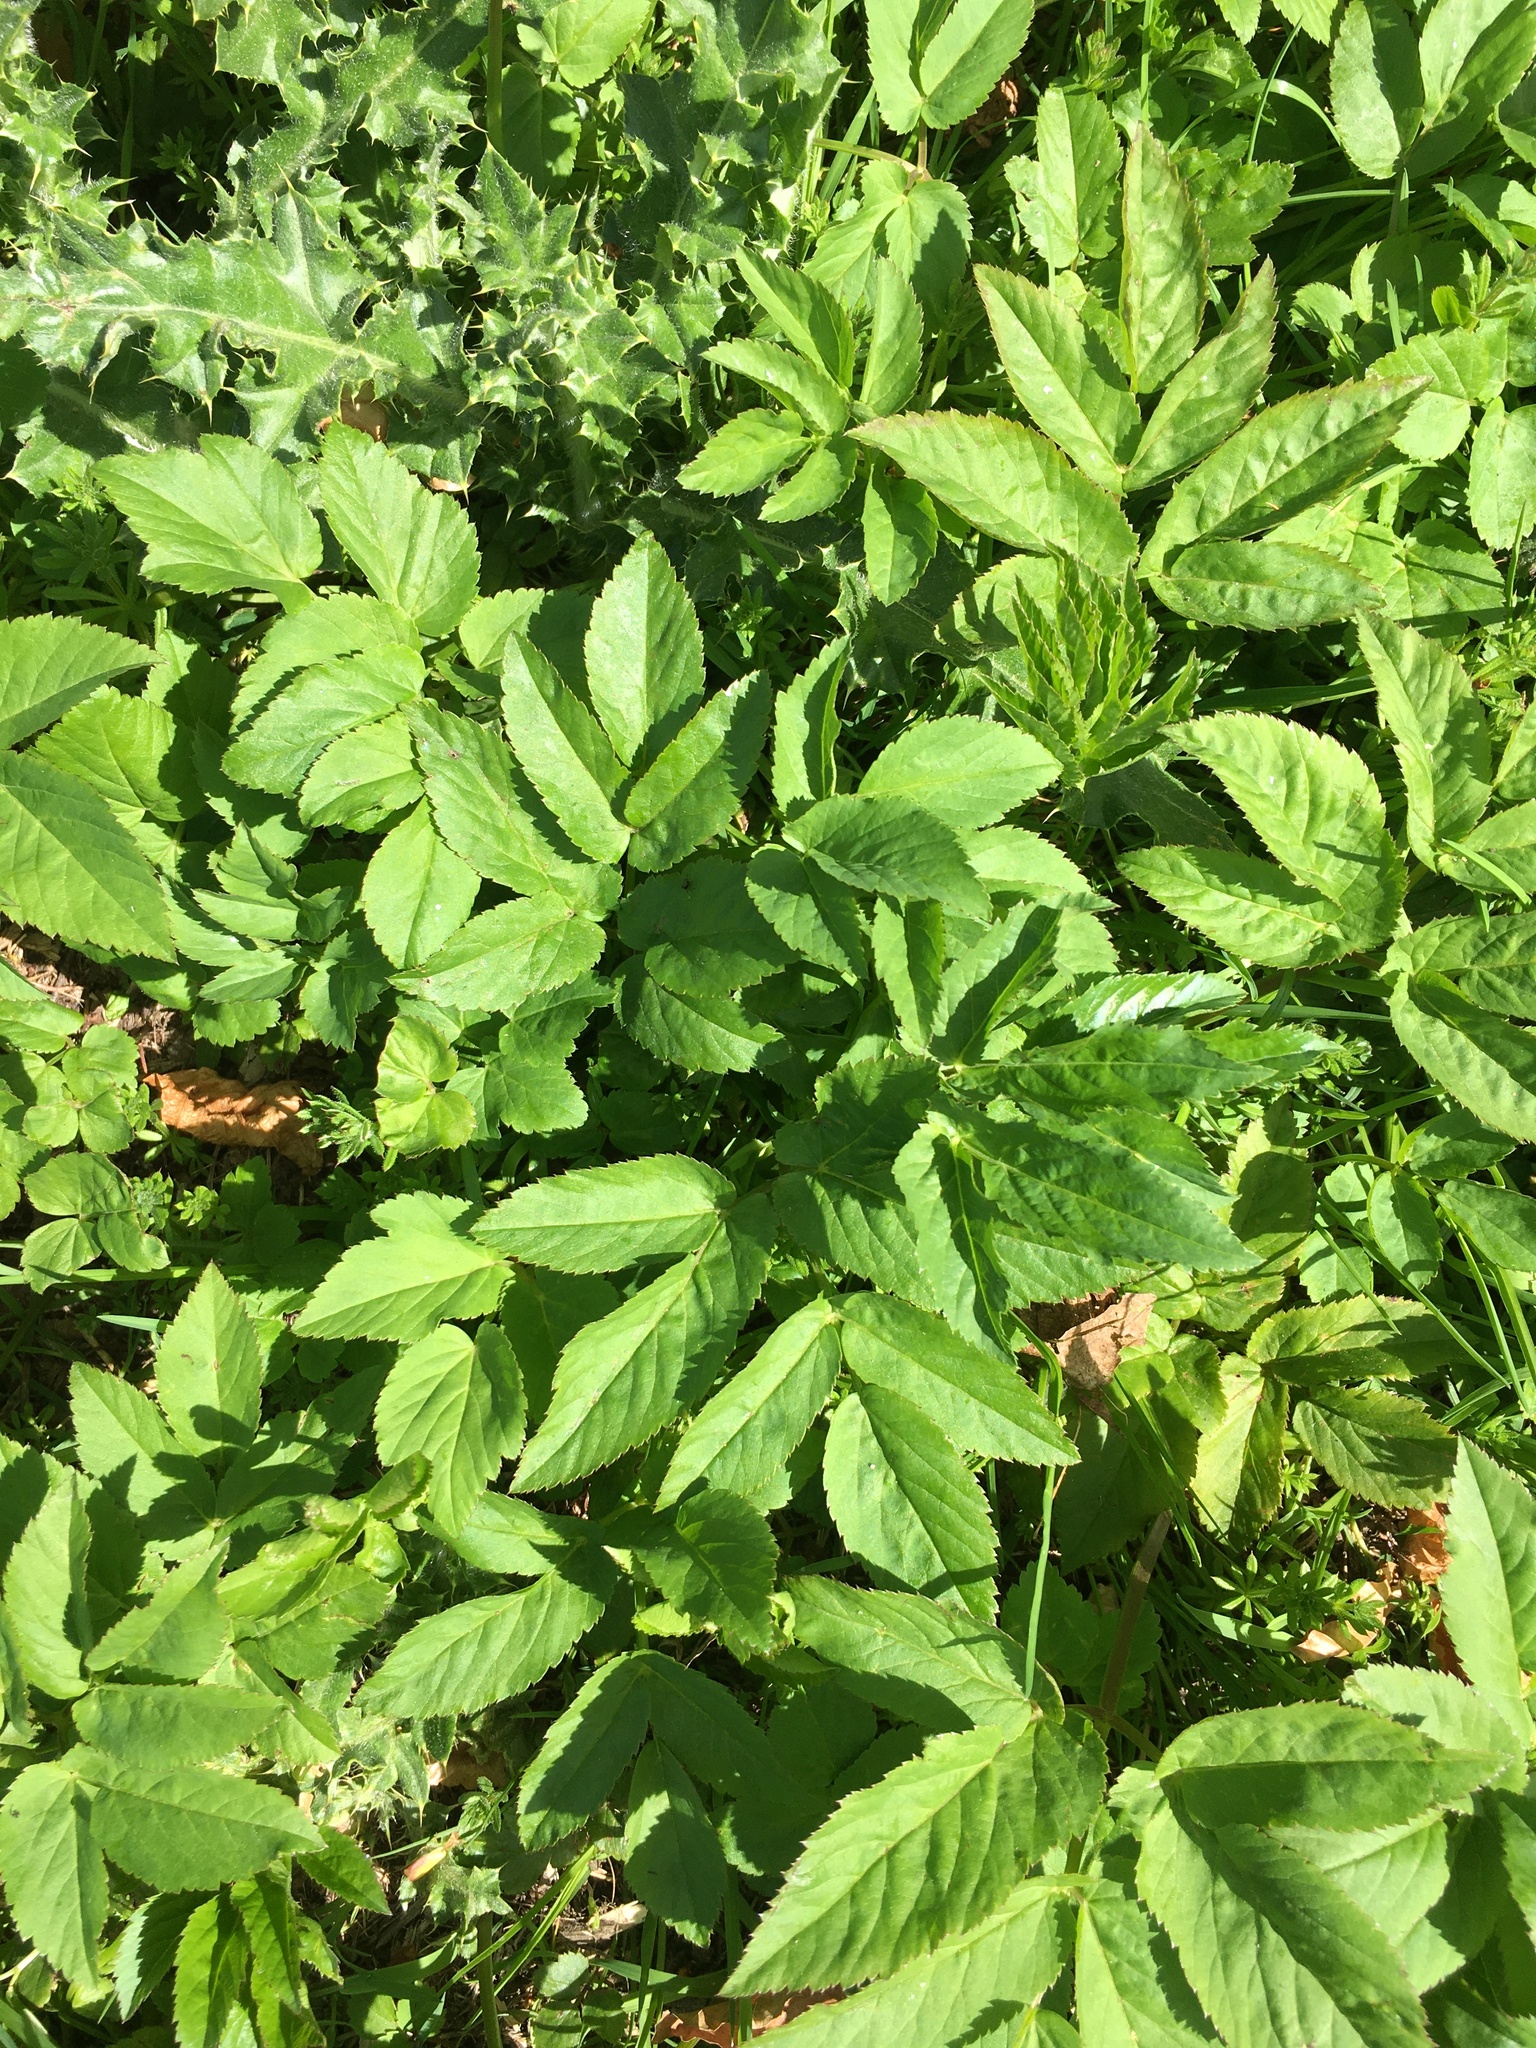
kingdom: Plantae
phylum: Tracheophyta
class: Magnoliopsida
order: Apiales
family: Apiaceae
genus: Aegopodium
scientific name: Aegopodium podagraria
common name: Ground-elder
